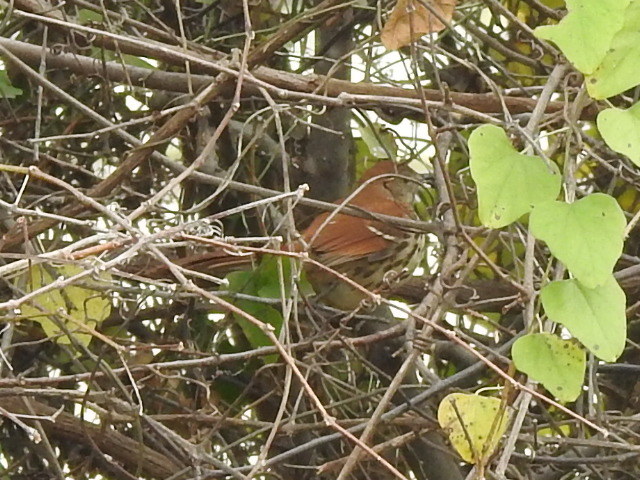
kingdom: Animalia
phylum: Chordata
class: Aves
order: Passeriformes
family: Mimidae
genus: Toxostoma
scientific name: Toxostoma rufum
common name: Brown thrasher
